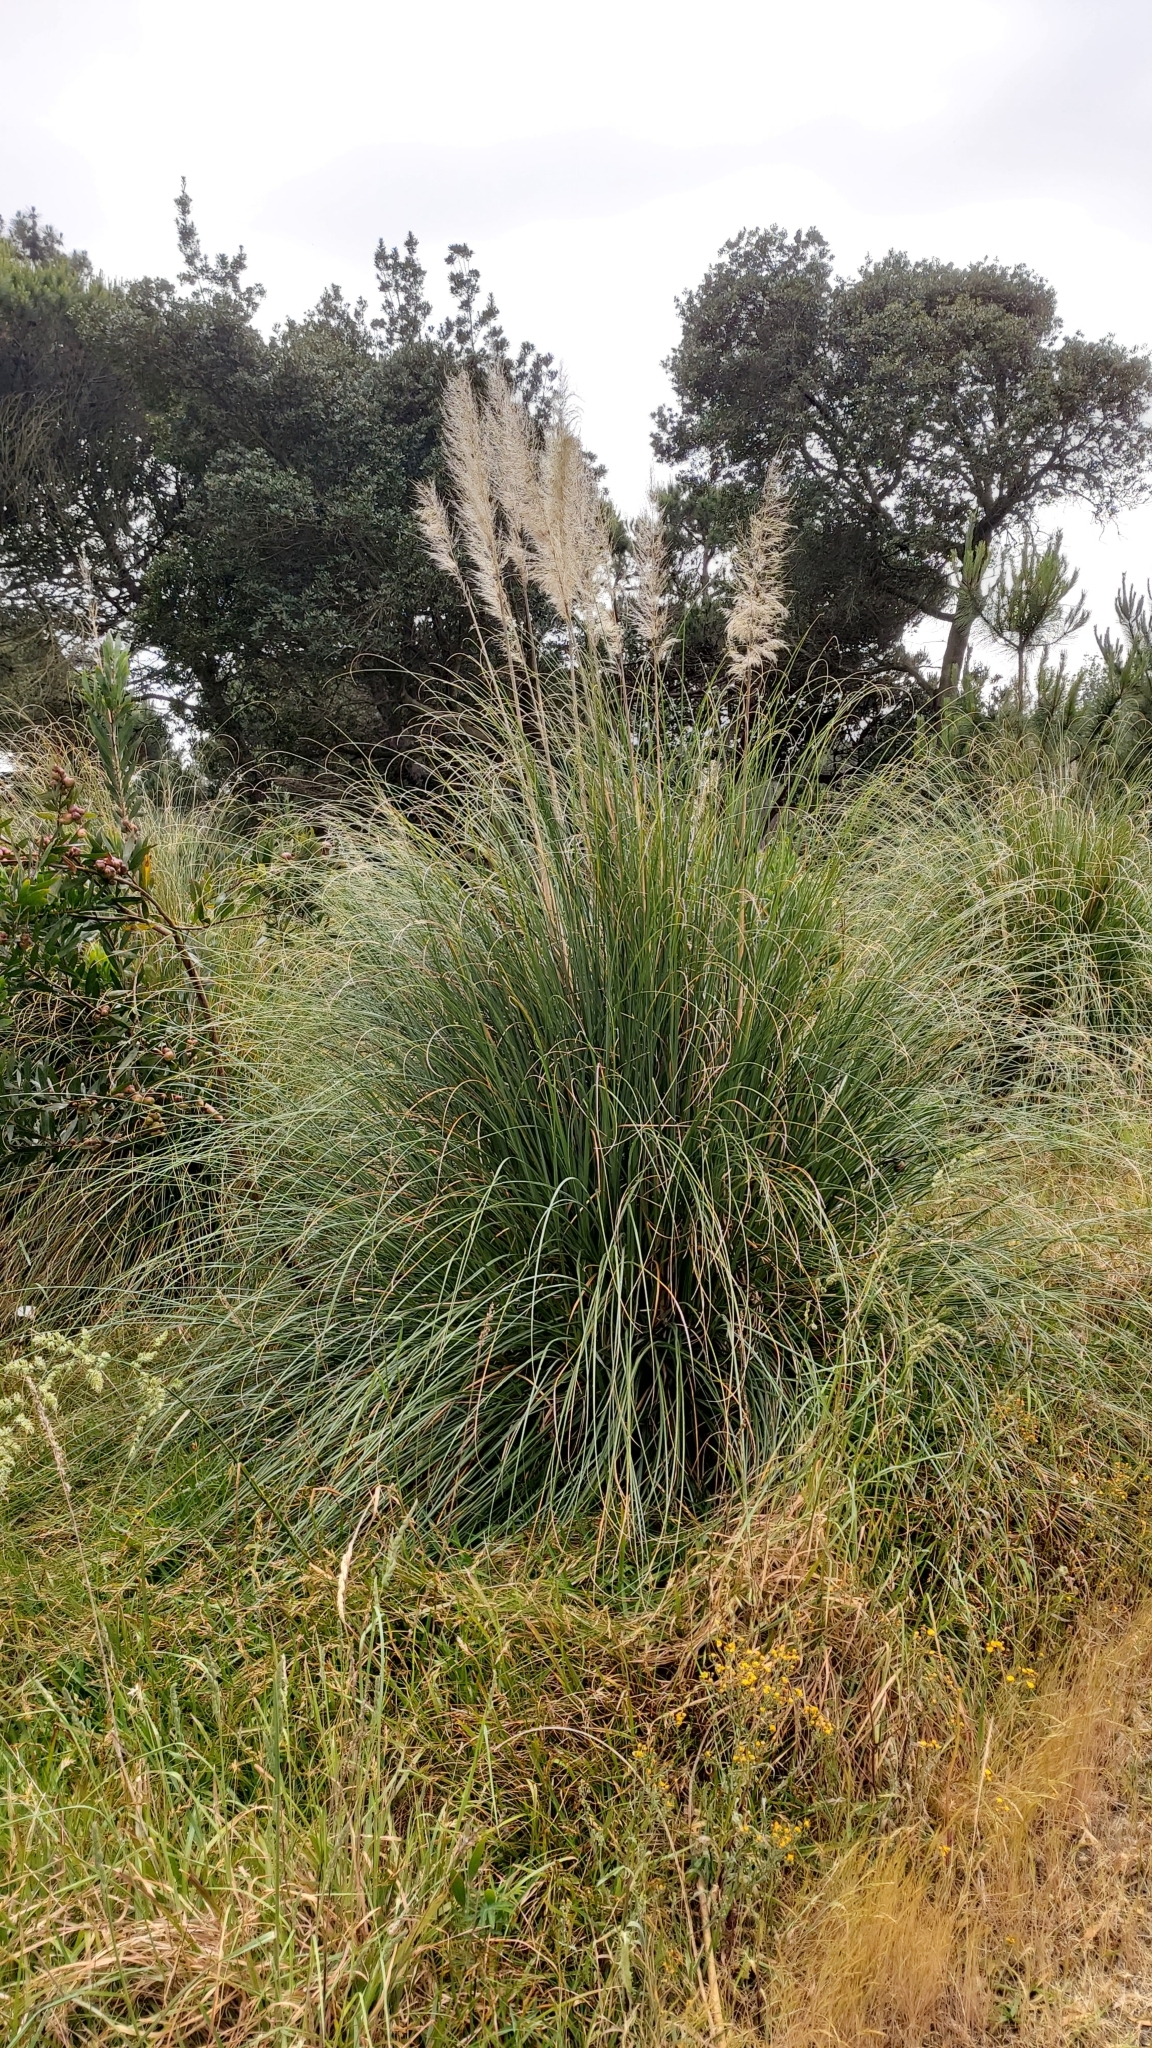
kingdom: Plantae
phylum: Tracheophyta
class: Liliopsida
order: Poales
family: Poaceae
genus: Cortaderia
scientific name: Cortaderia selloana
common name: Uruguayan pampas grass
